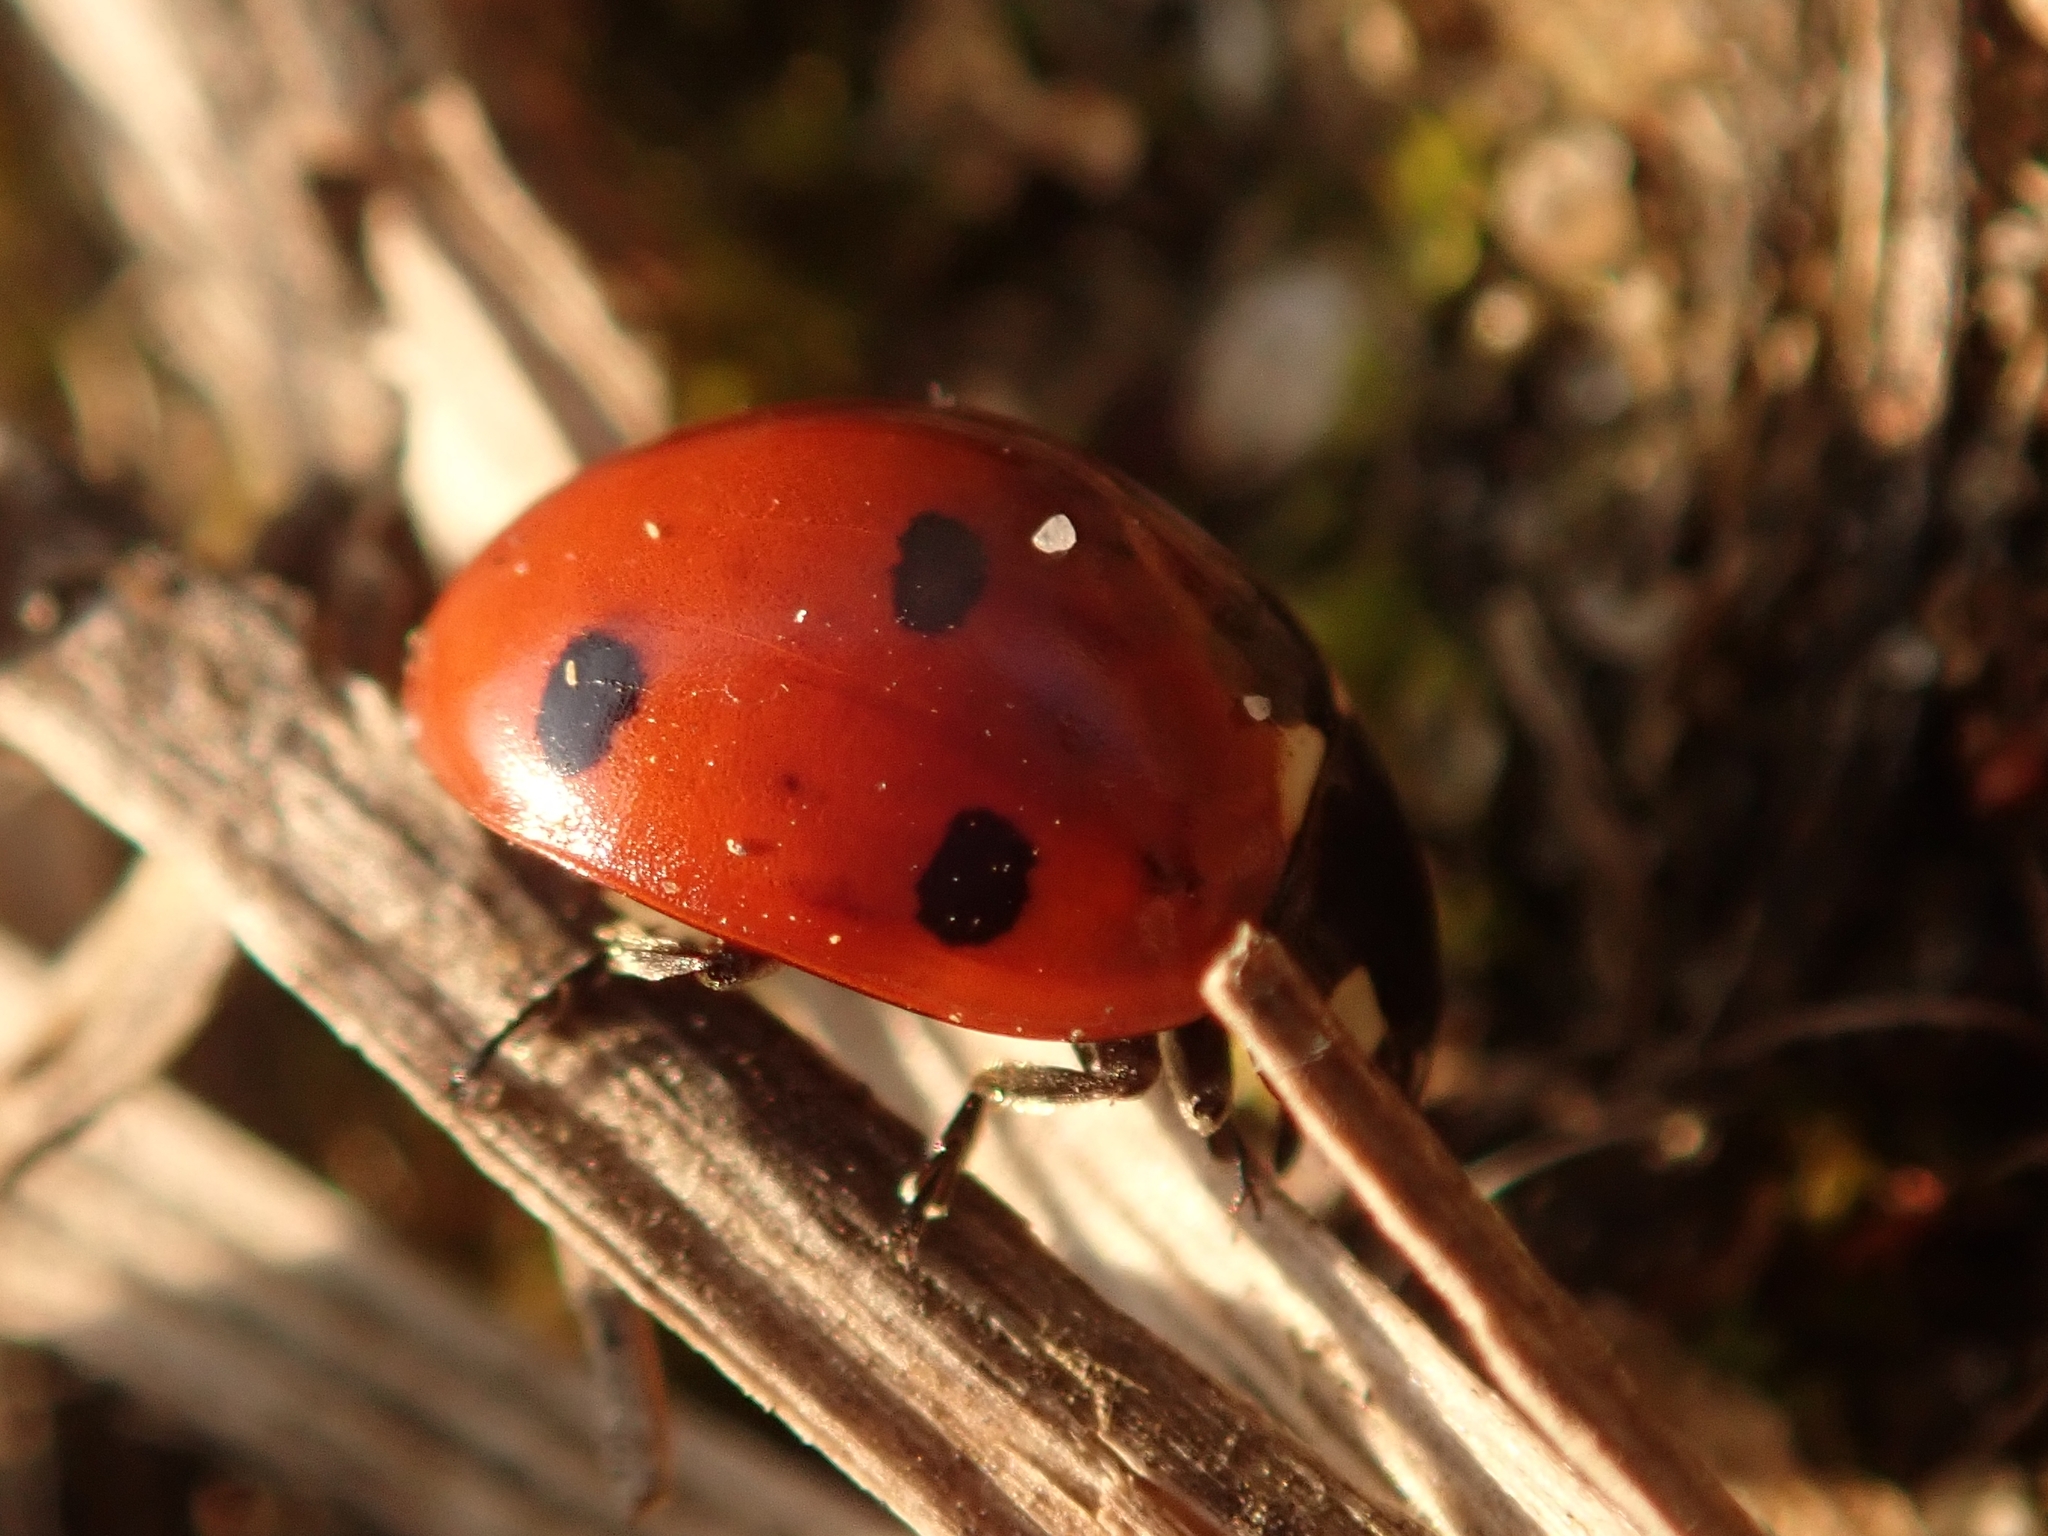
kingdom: Animalia
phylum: Arthropoda
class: Insecta
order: Coleoptera
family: Coccinellidae
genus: Coccinella
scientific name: Coccinella septempunctata
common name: Sevenspotted lady beetle
